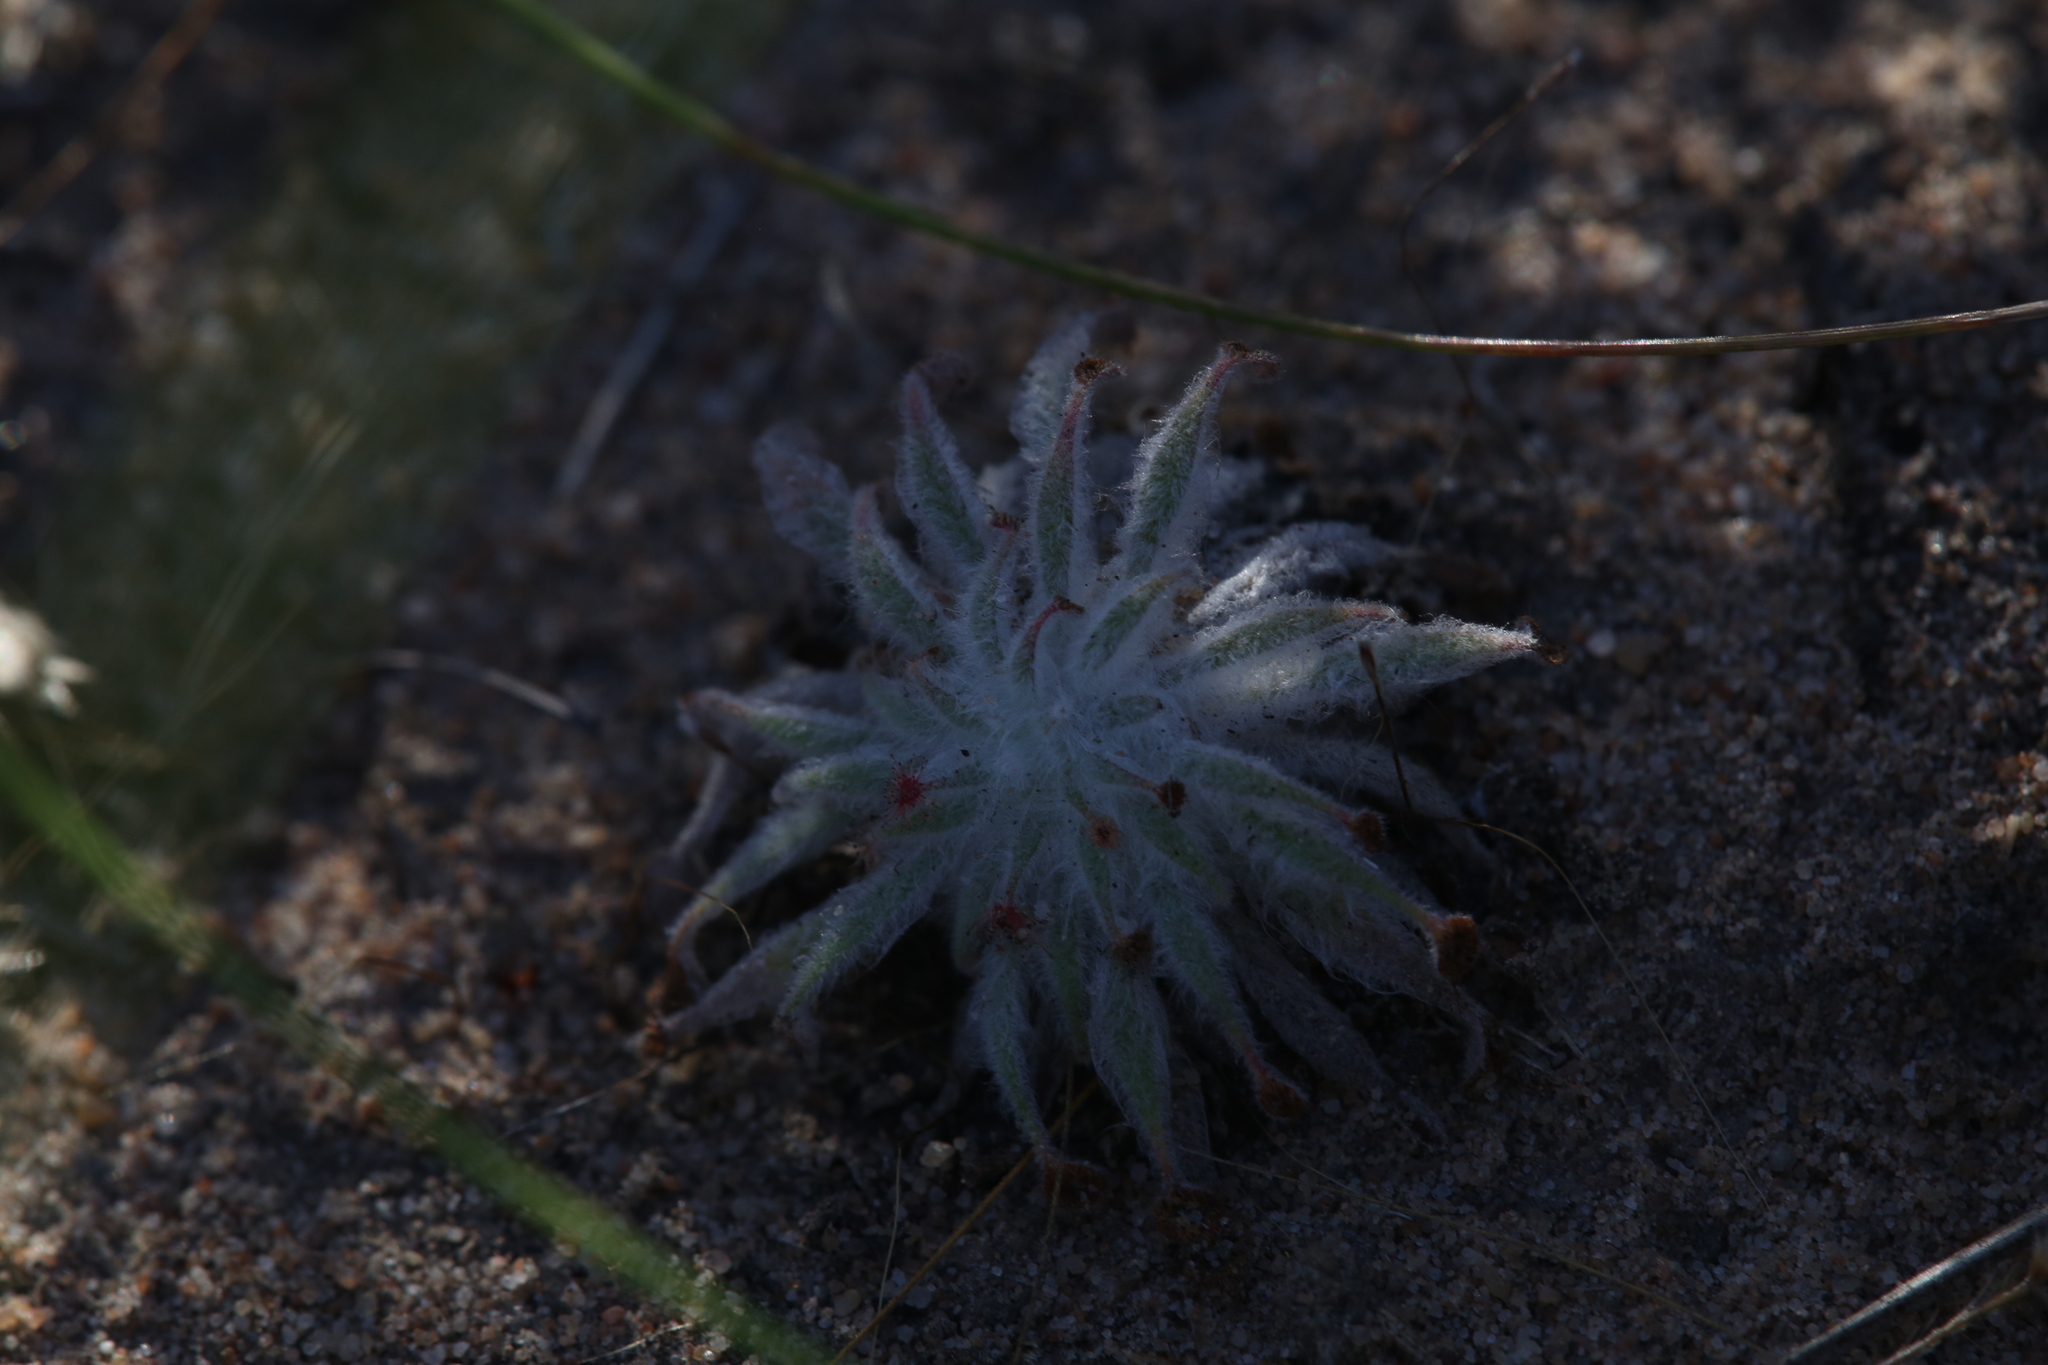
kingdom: Plantae
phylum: Tracheophyta
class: Magnoliopsida
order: Caryophyllales
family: Droseraceae
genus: Drosera
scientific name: Drosera ordensis
